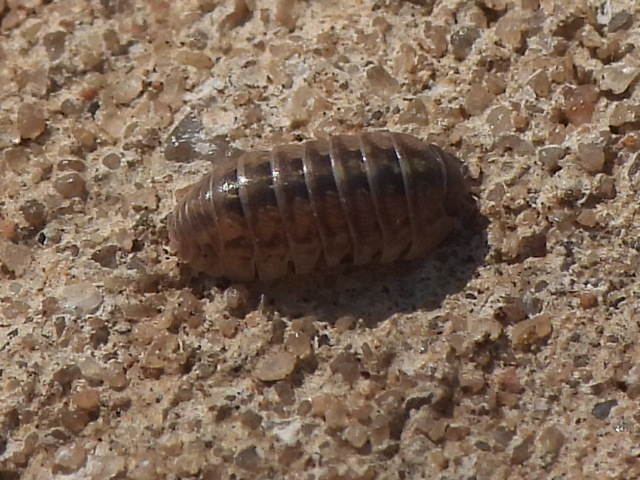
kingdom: Animalia
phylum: Arthropoda
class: Malacostraca
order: Isopoda
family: Armadillidiidae
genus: Armadillidium
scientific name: Armadillidium vulgare
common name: Common pill woodlouse
